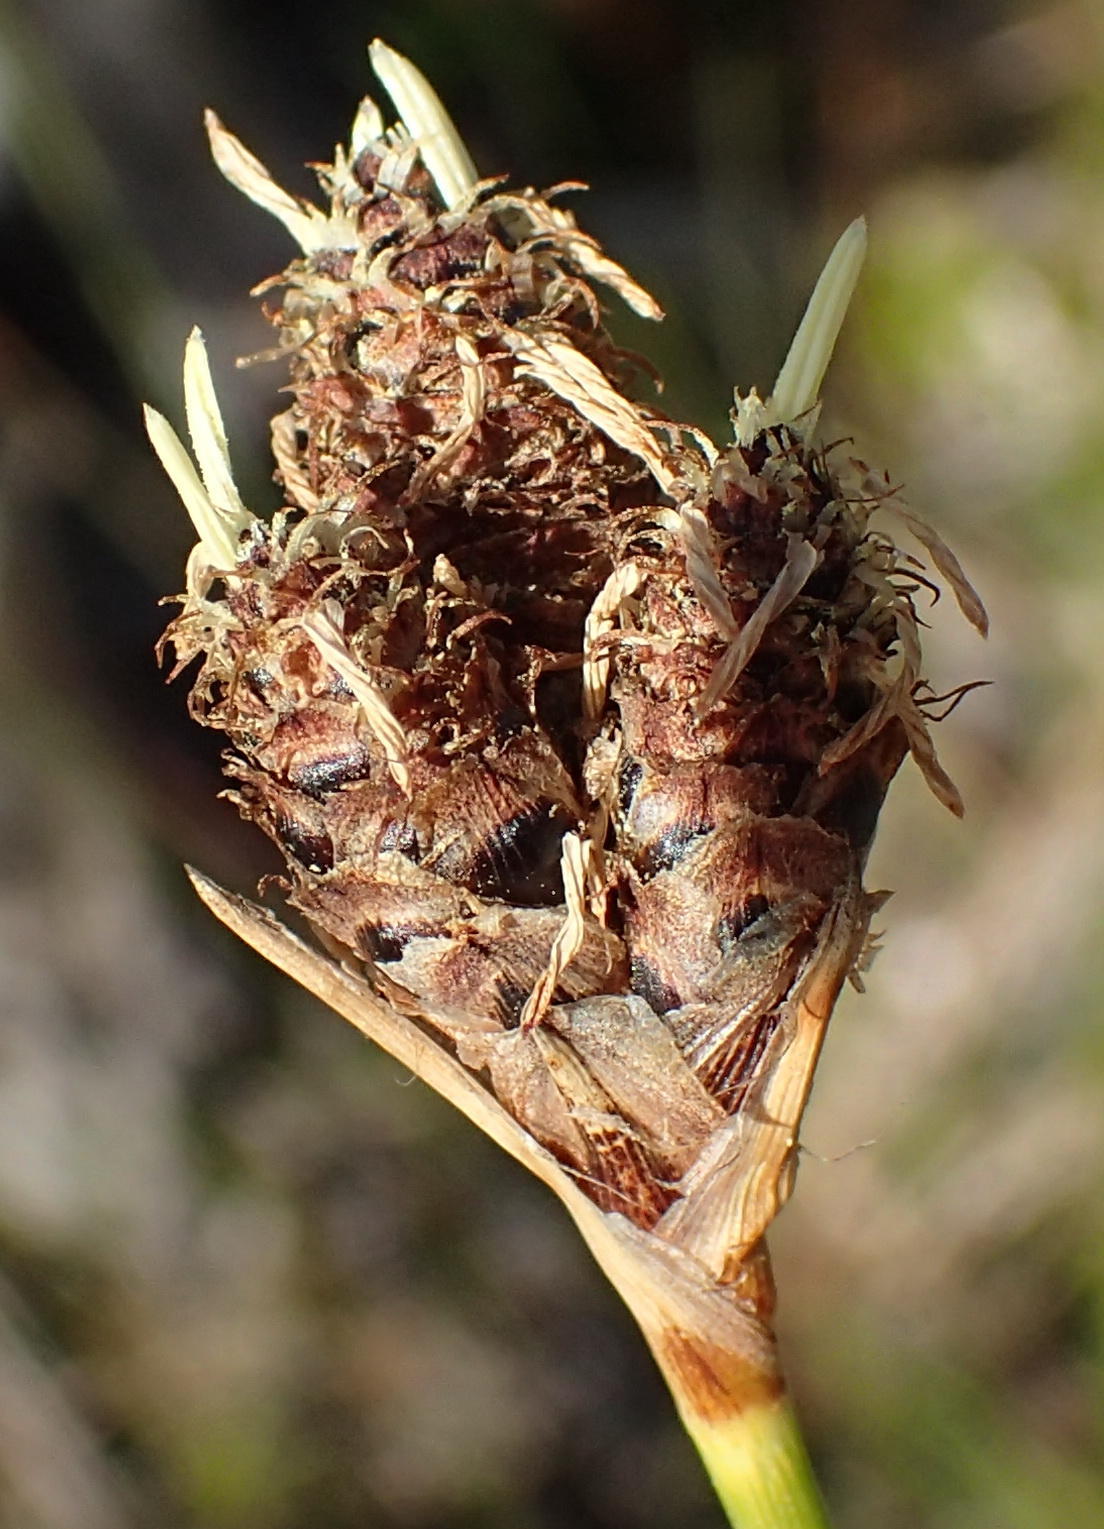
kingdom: Plantae
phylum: Tracheophyta
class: Liliopsida
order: Poales
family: Cyperaceae
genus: Hellmuthia
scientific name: Hellmuthia membranacea
